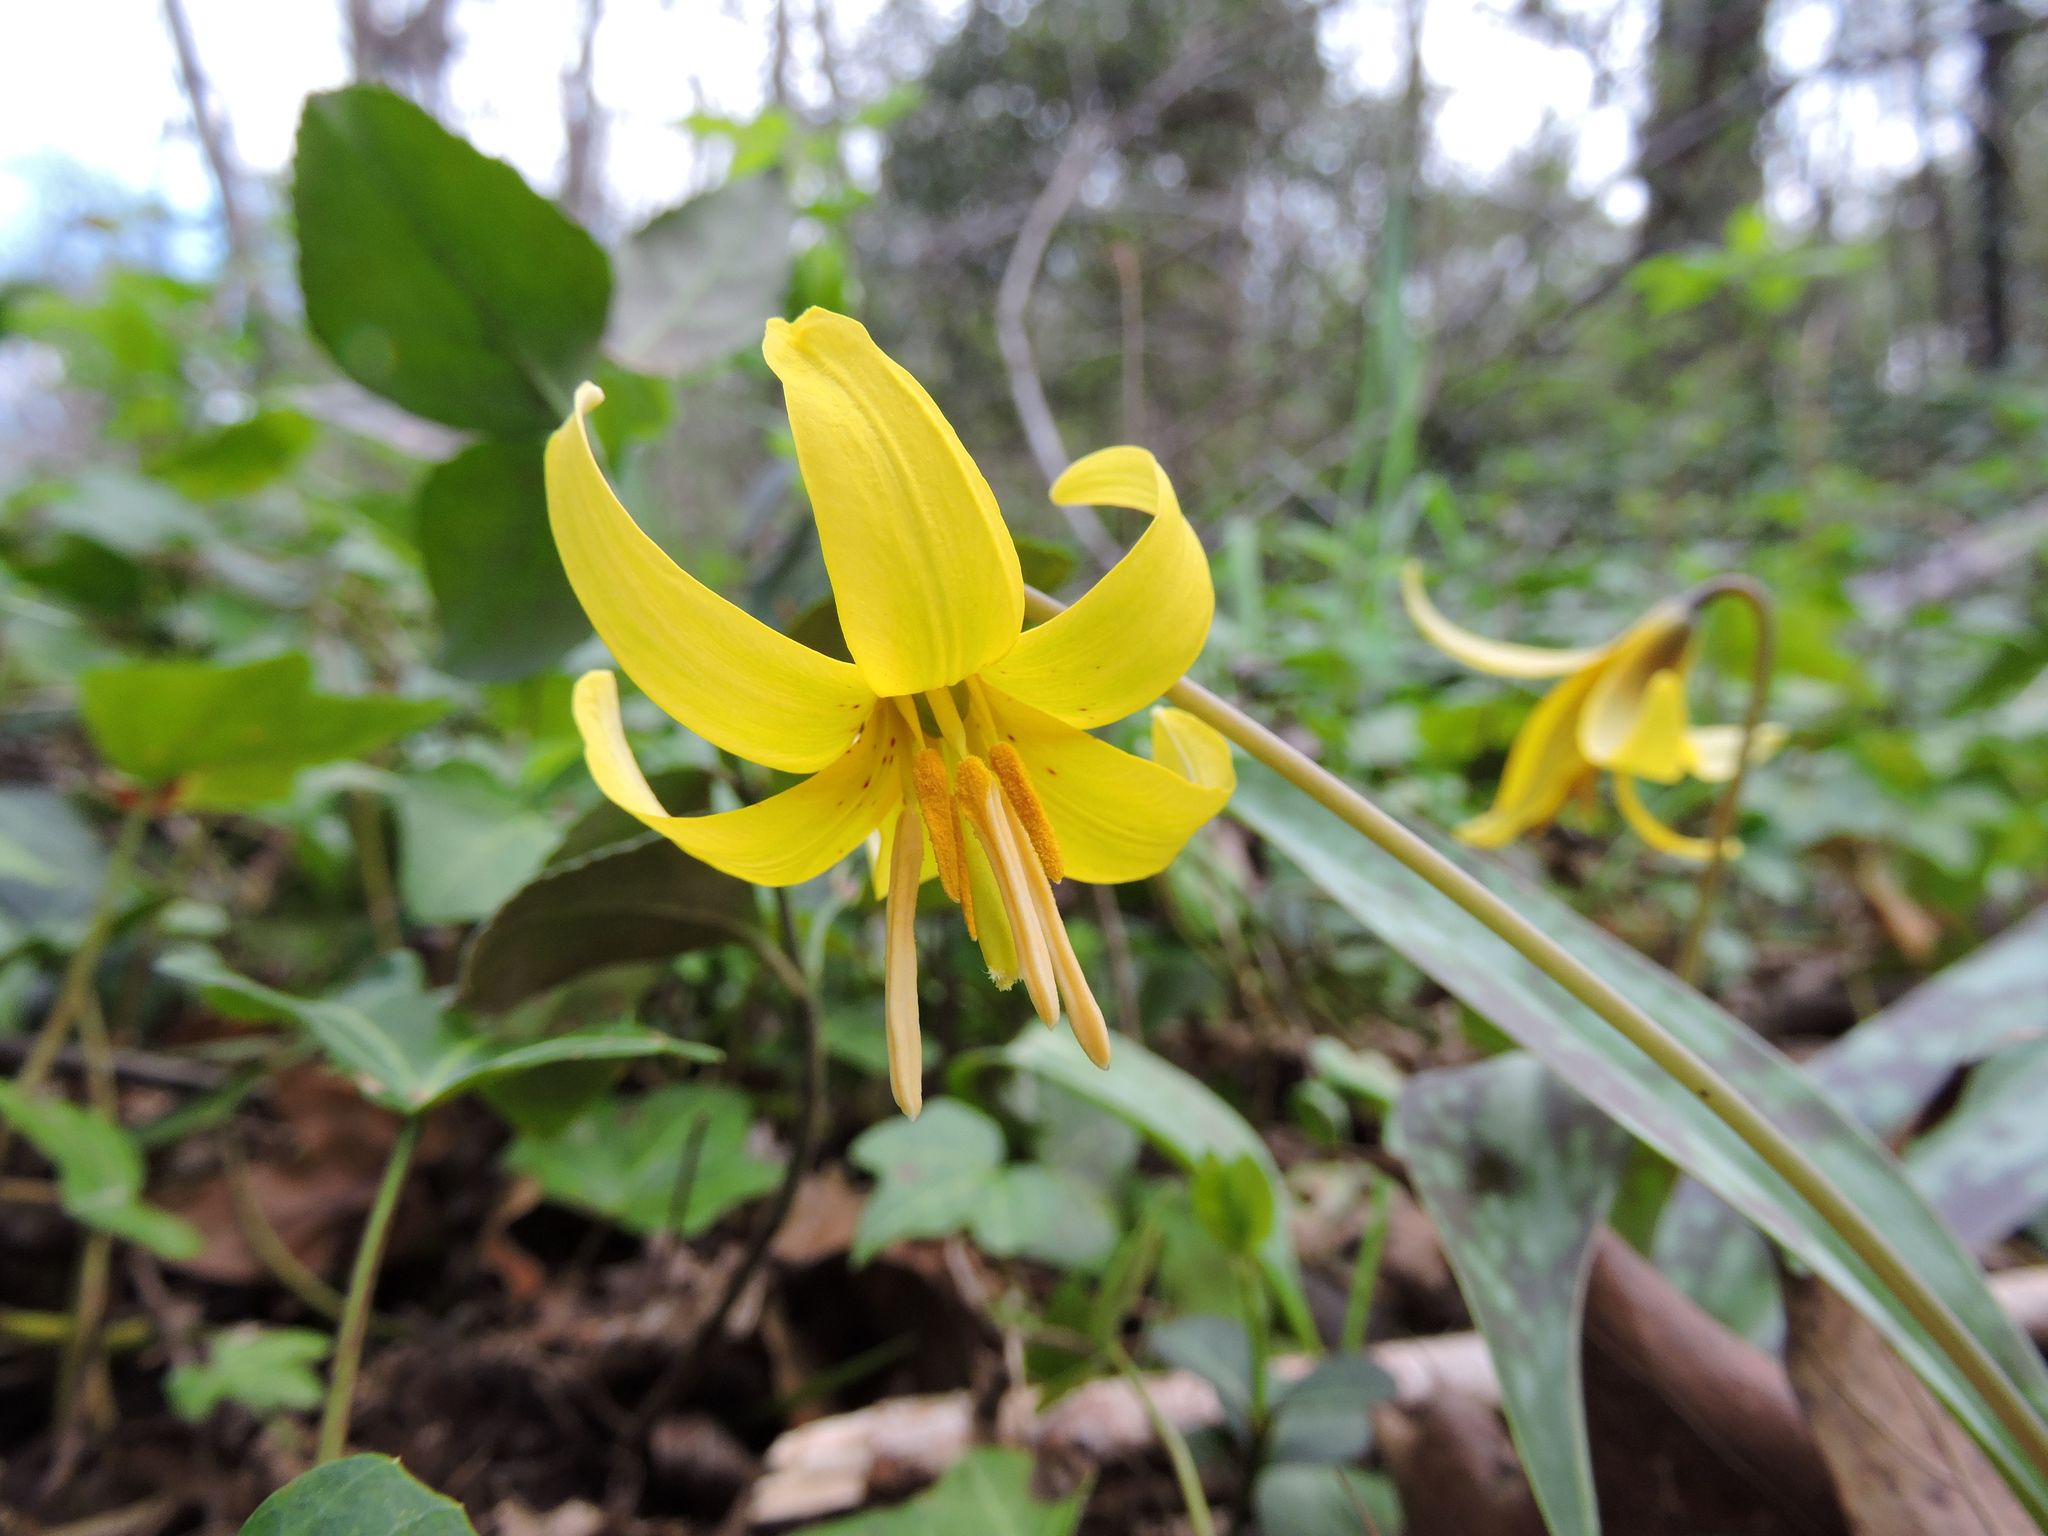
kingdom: Plantae
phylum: Tracheophyta
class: Liliopsida
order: Liliales
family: Liliaceae
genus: Erythronium
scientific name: Erythronium americanum
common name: Yellow adder's-tongue
